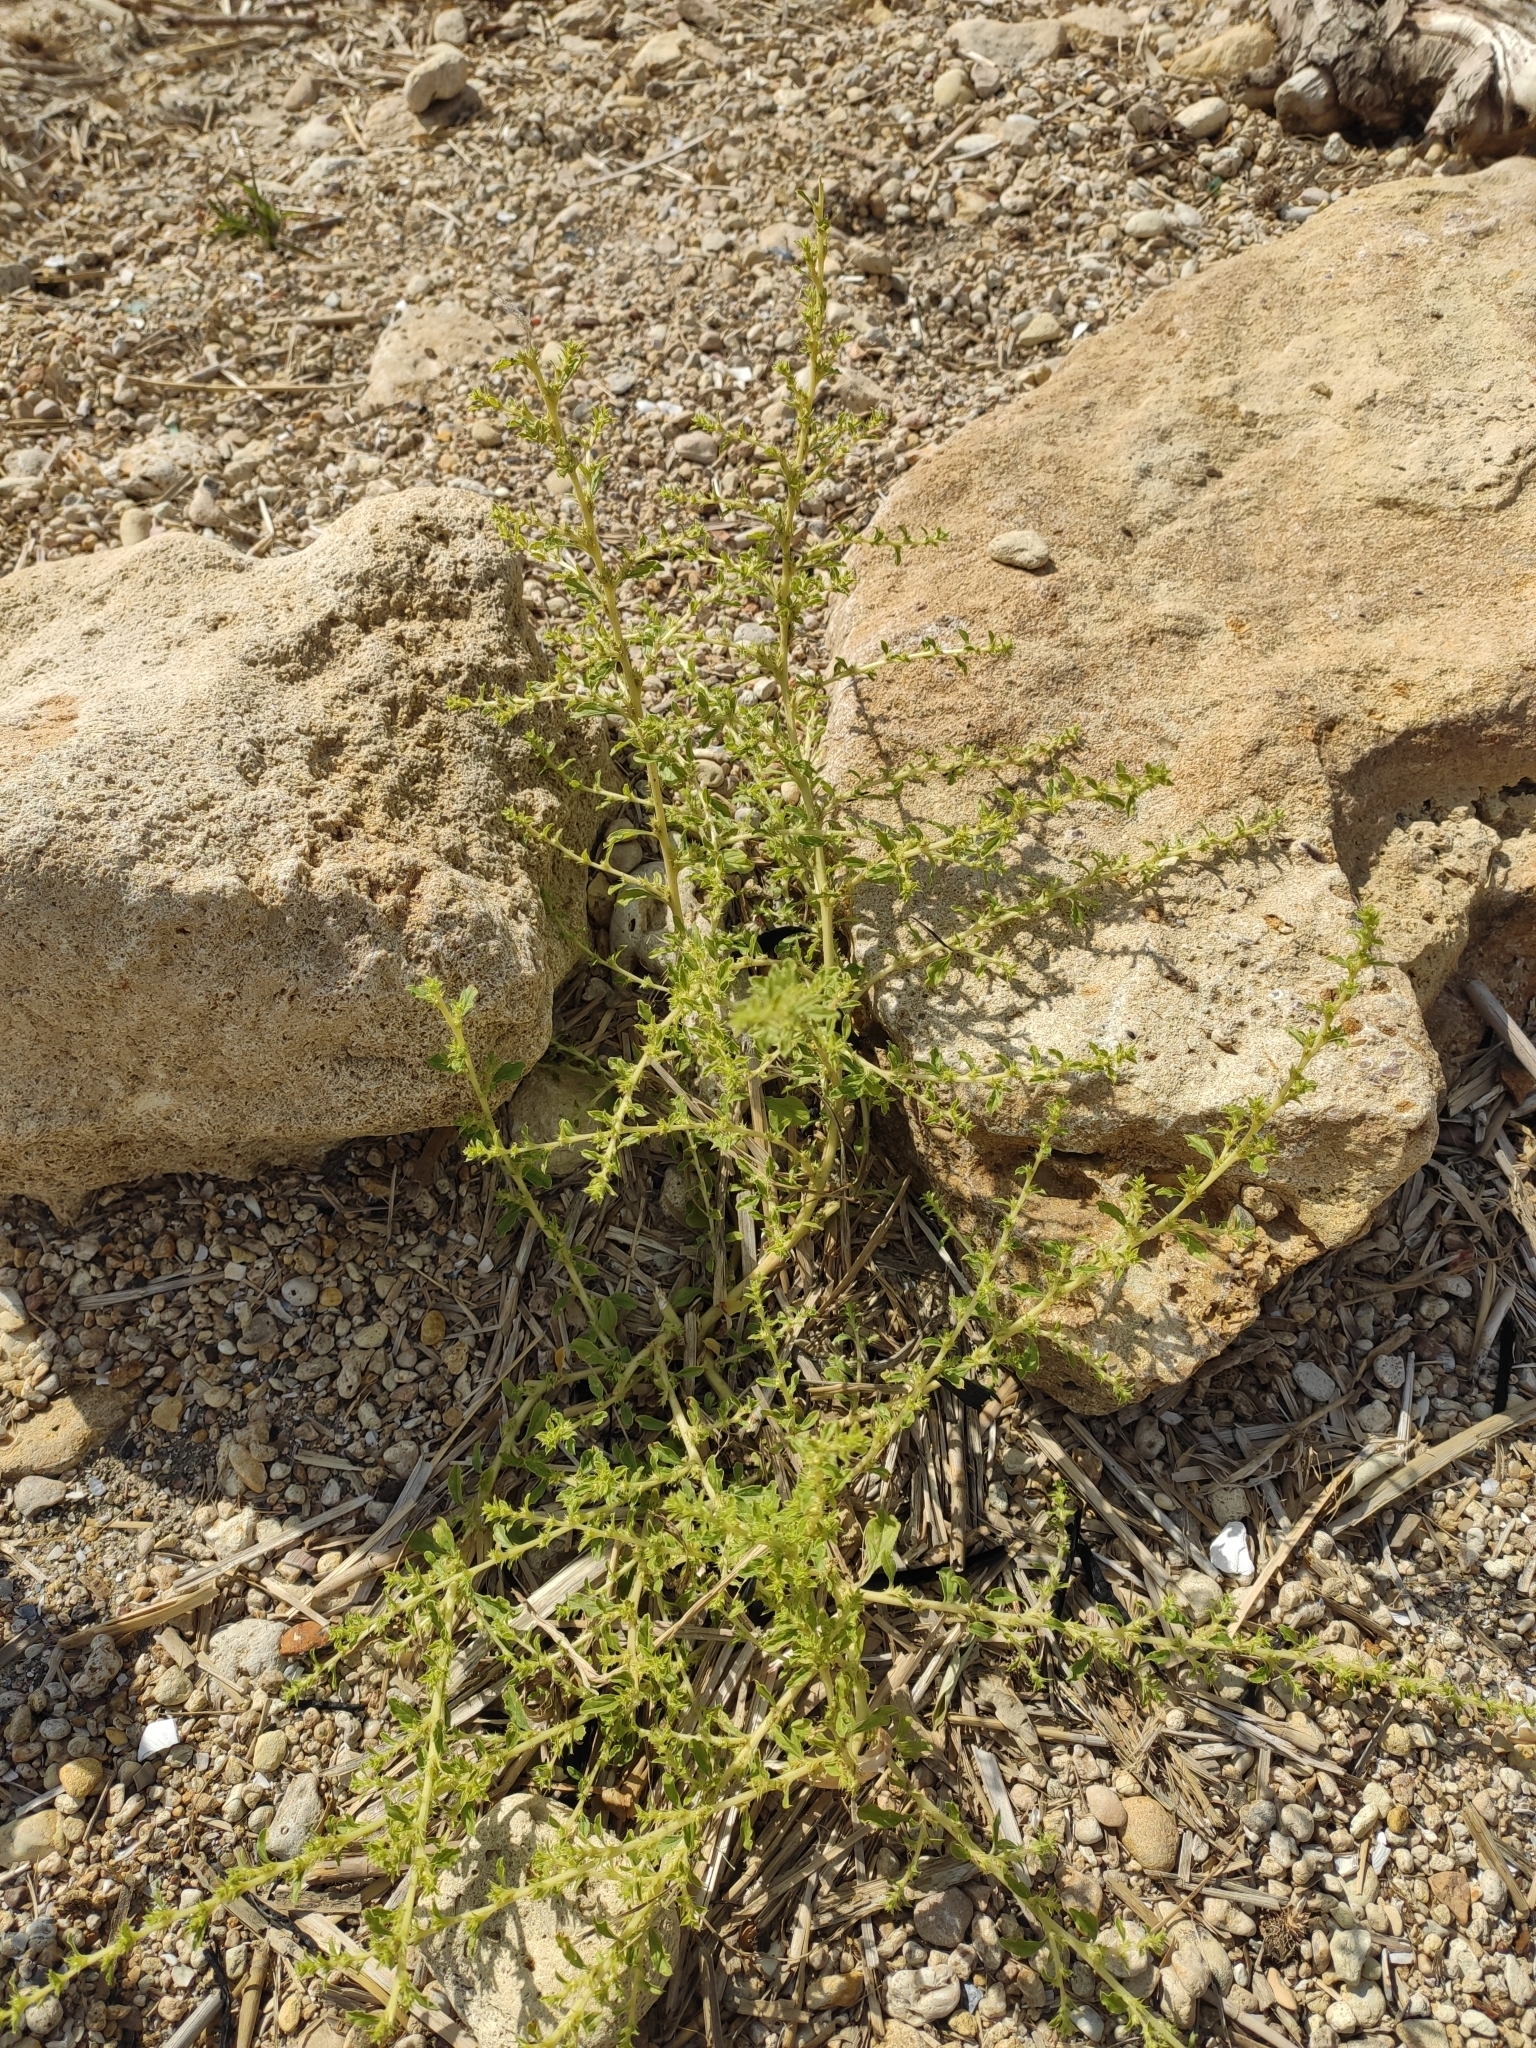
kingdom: Plantae
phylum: Tracheophyta
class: Magnoliopsida
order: Caryophyllales
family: Amaranthaceae
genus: Amaranthus
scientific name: Amaranthus albus
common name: White pigweed
